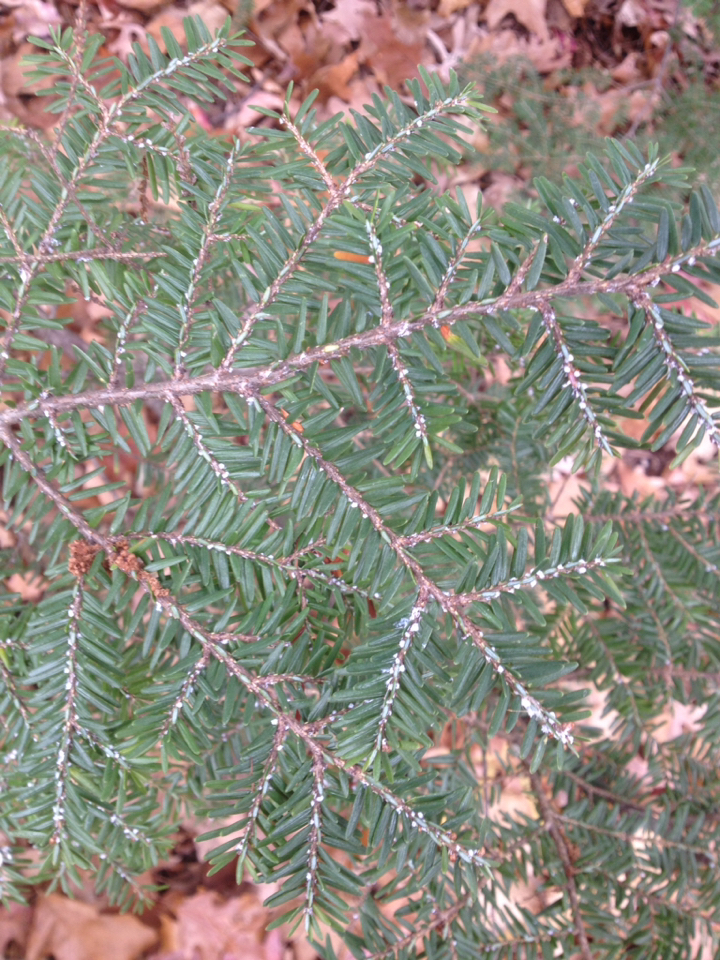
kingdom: Animalia
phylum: Arthropoda
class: Insecta
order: Hemiptera
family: Adelgidae
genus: Adelges
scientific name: Adelges tsugae
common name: Hemlock woolly adelgid
